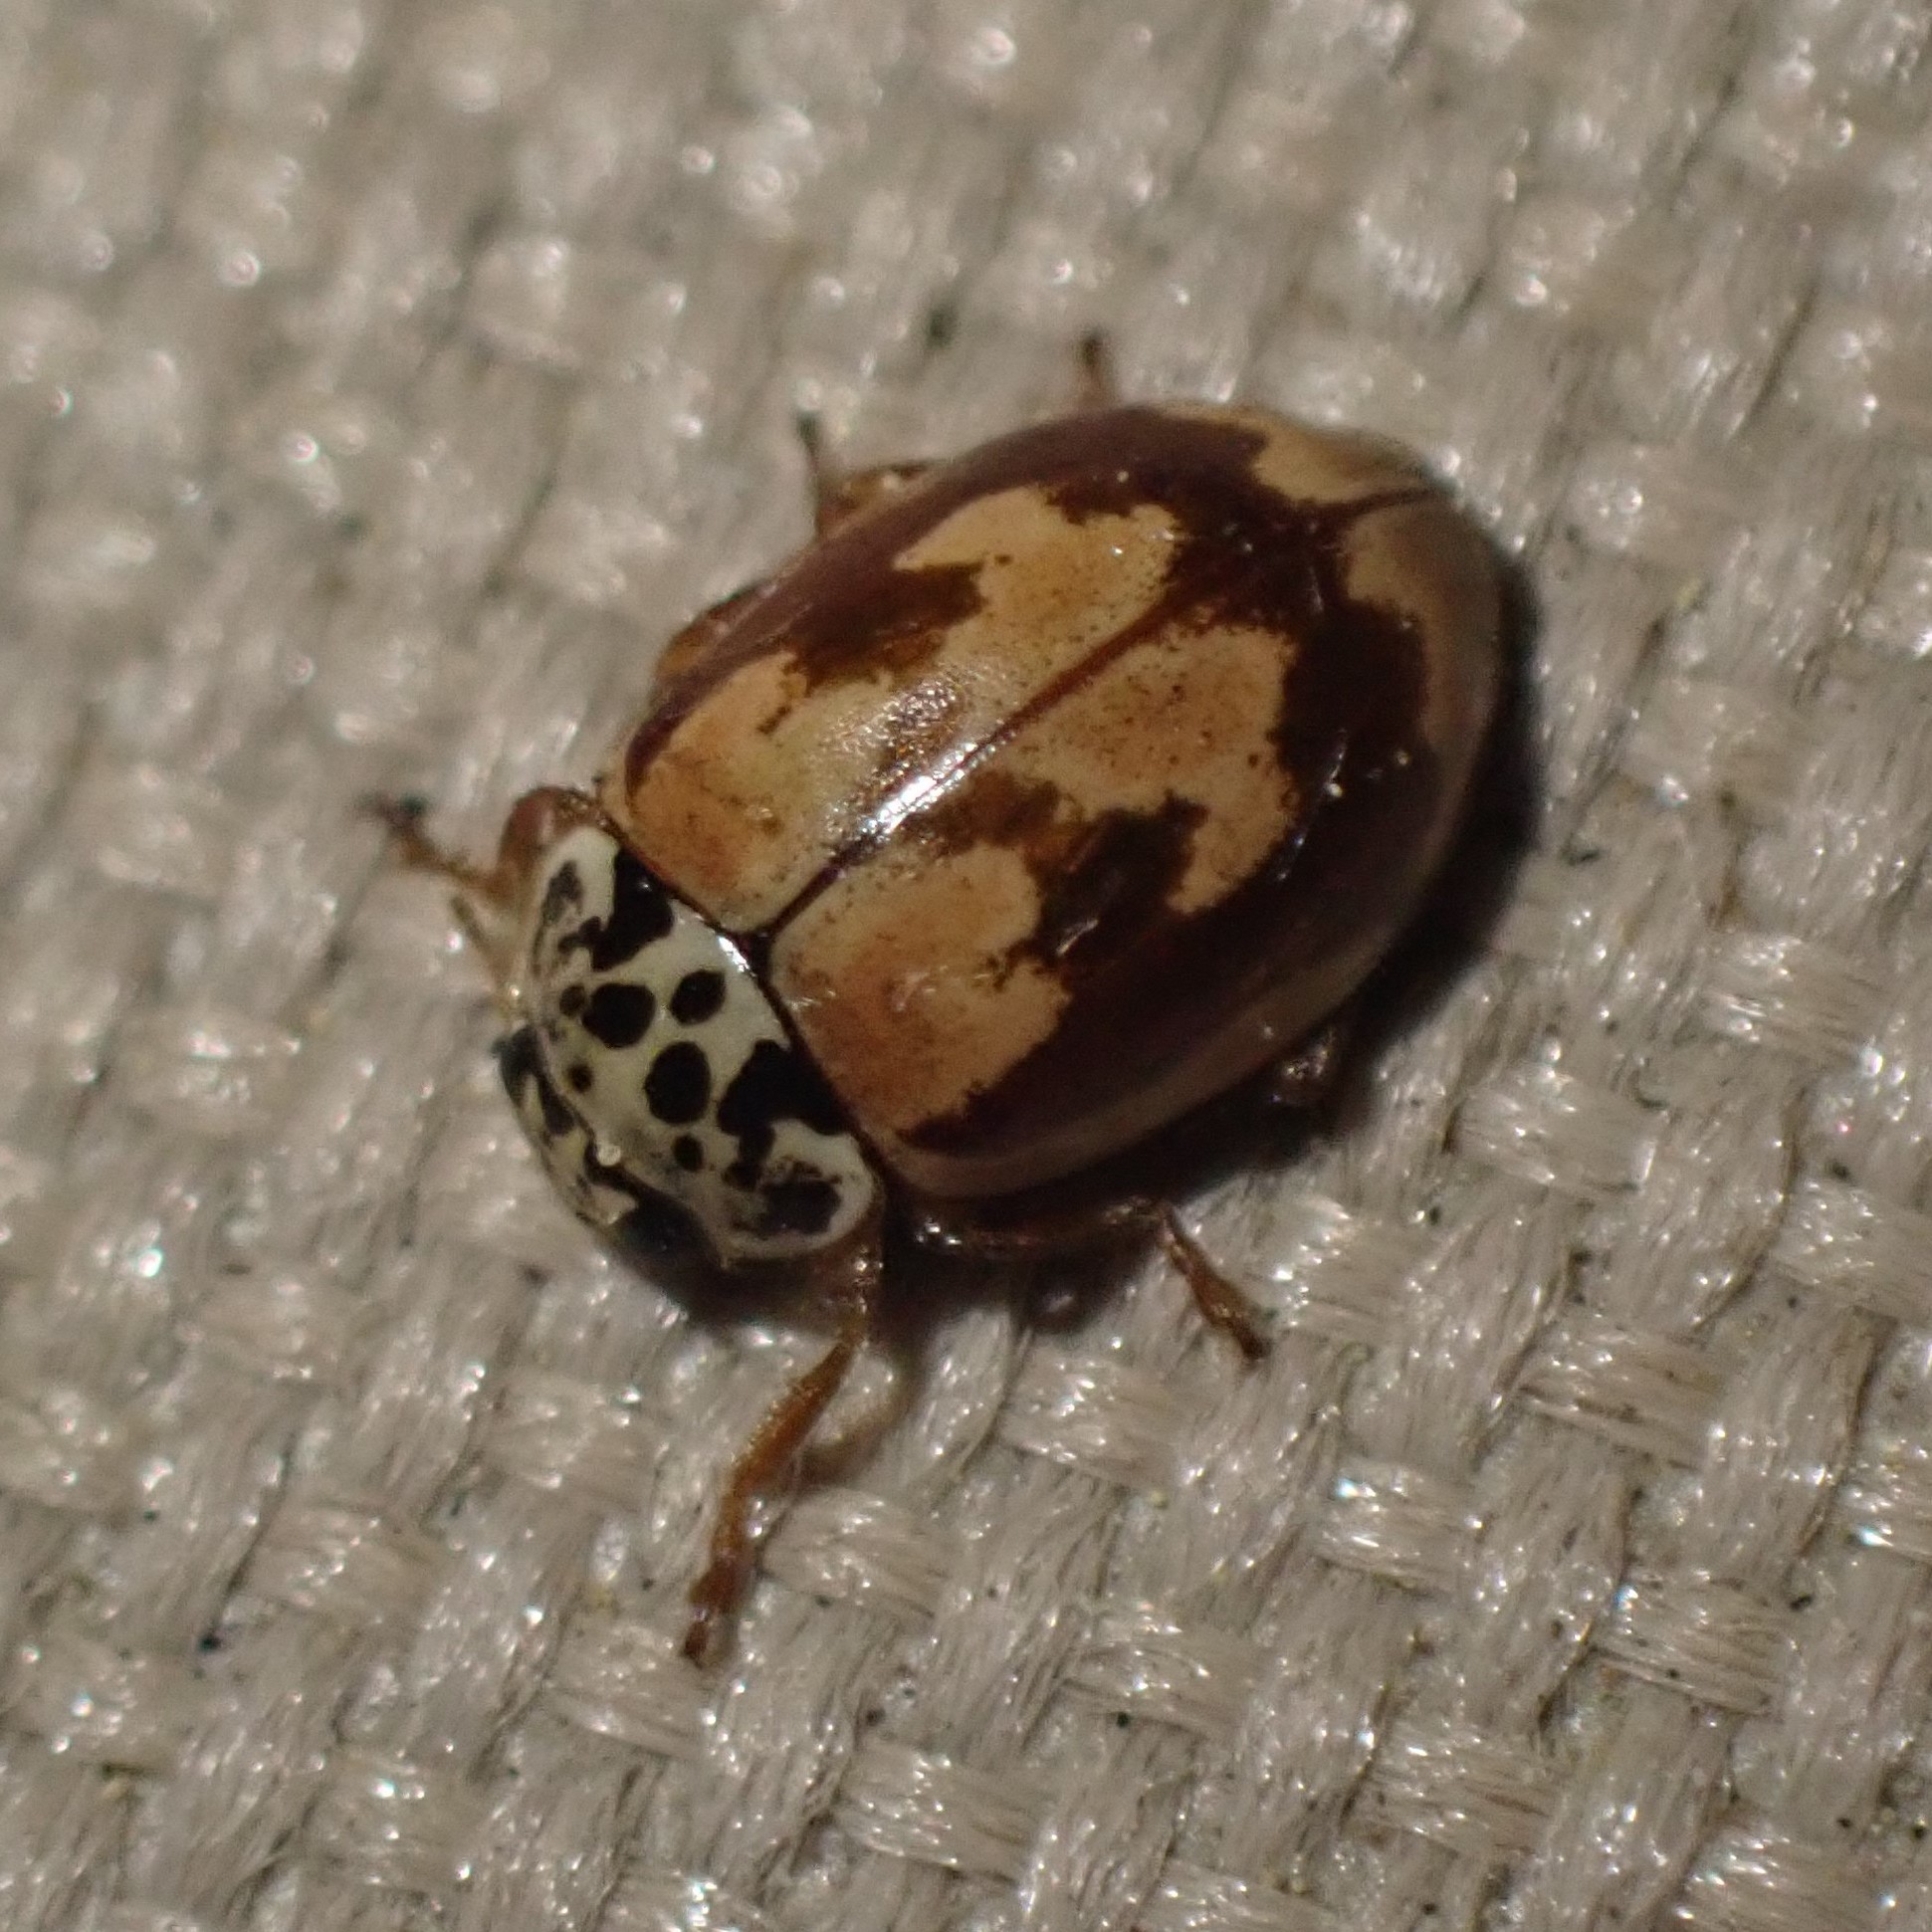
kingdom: Animalia
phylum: Arthropoda
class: Insecta
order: Coleoptera
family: Coccinellidae
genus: Mulsantina
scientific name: Mulsantina picta
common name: Painted ladybird
